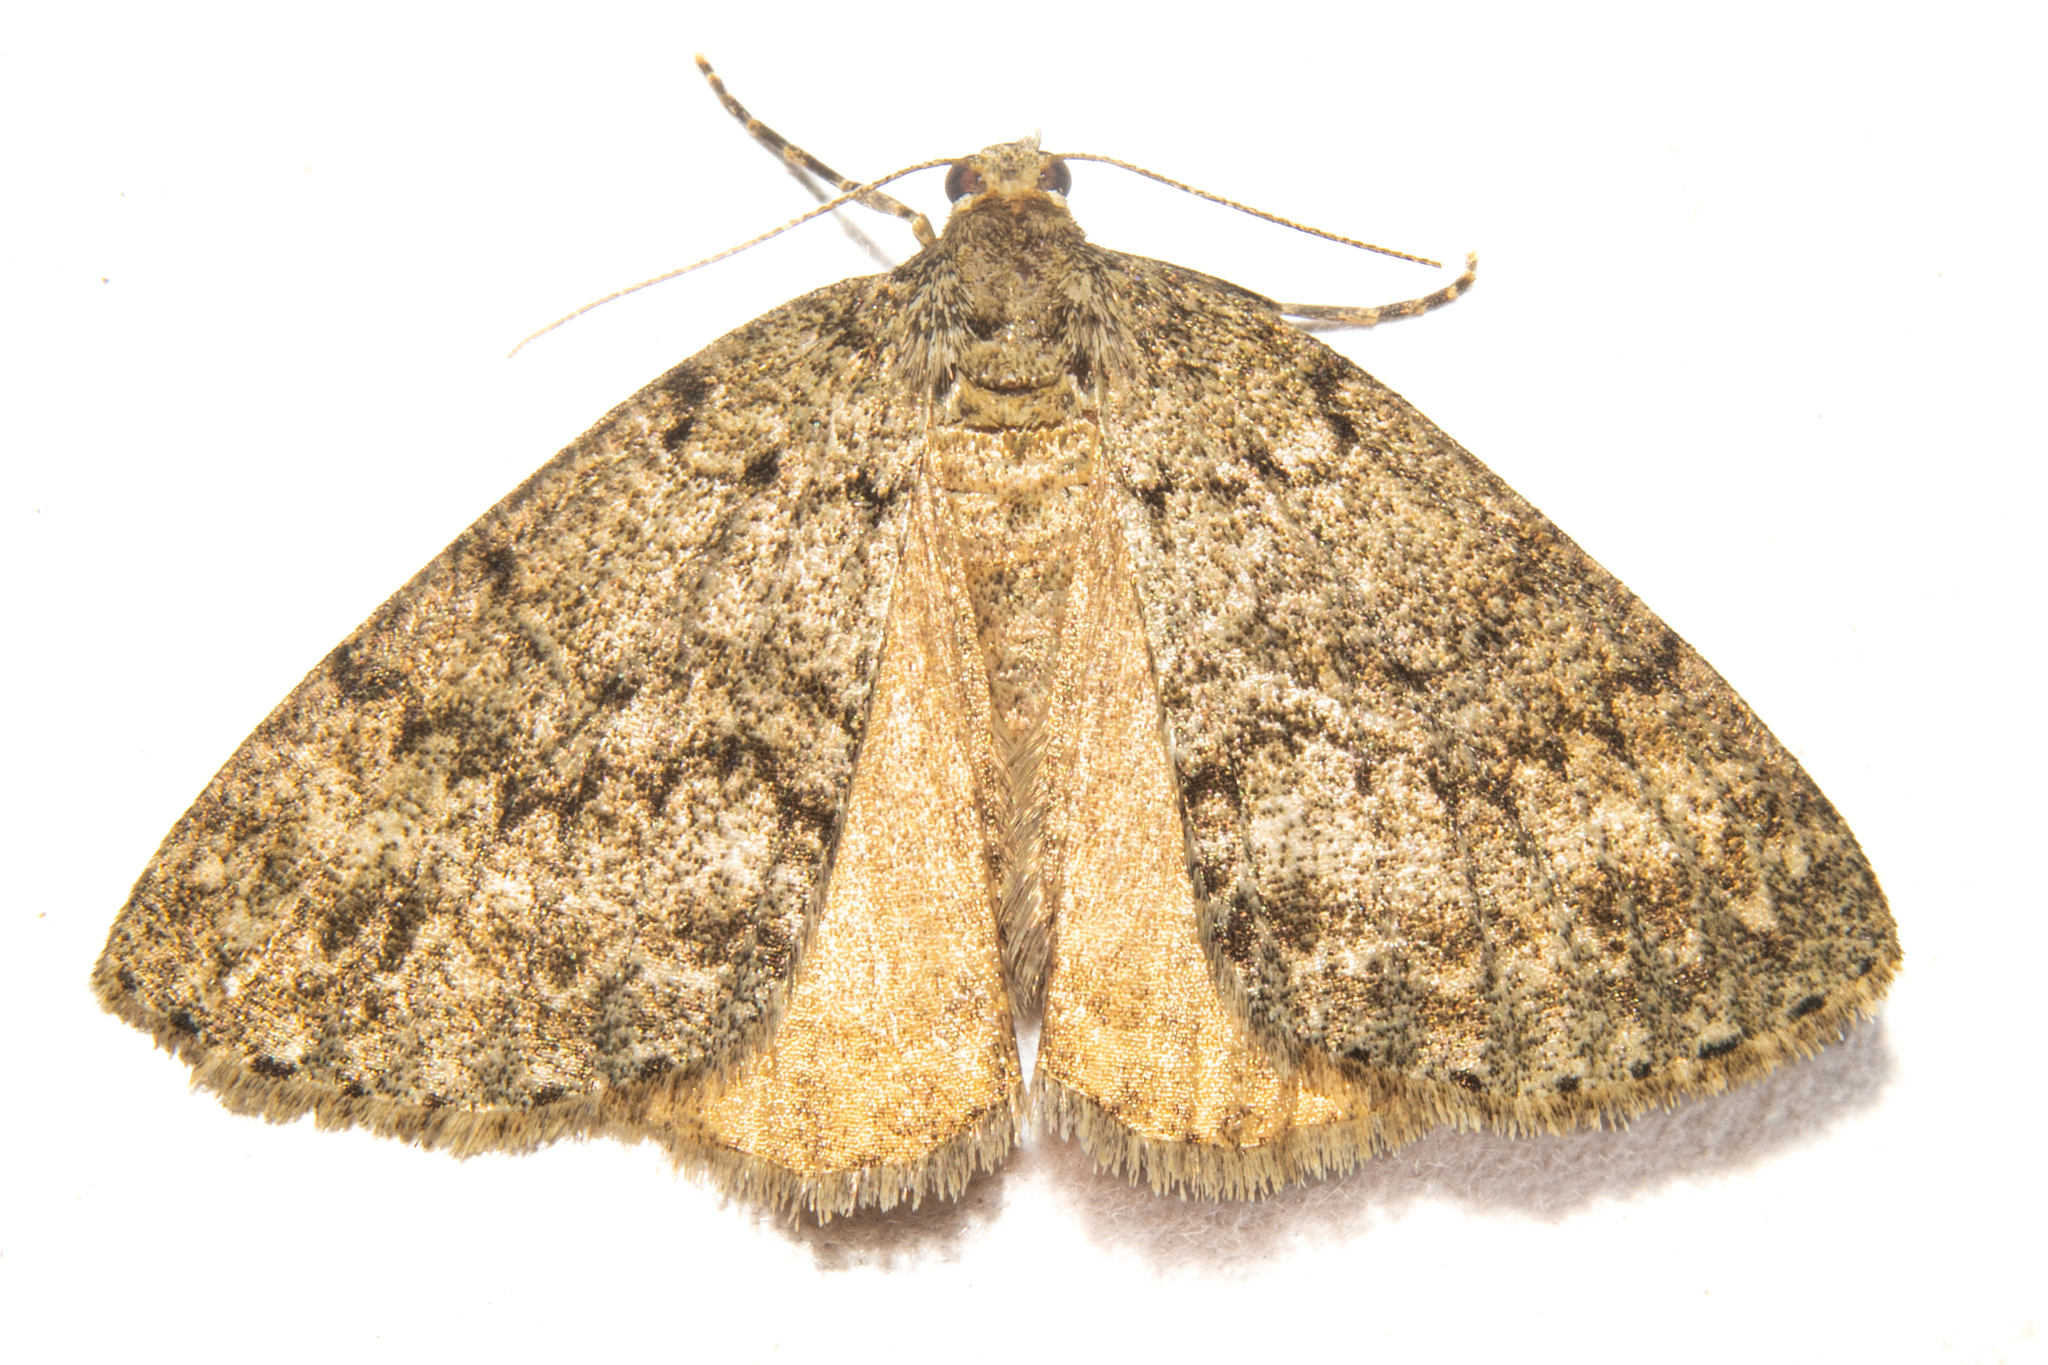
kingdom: Animalia
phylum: Arthropoda
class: Insecta
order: Lepidoptera
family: Geometridae
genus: Pseudocoremia
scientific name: Pseudocoremia indistincta
